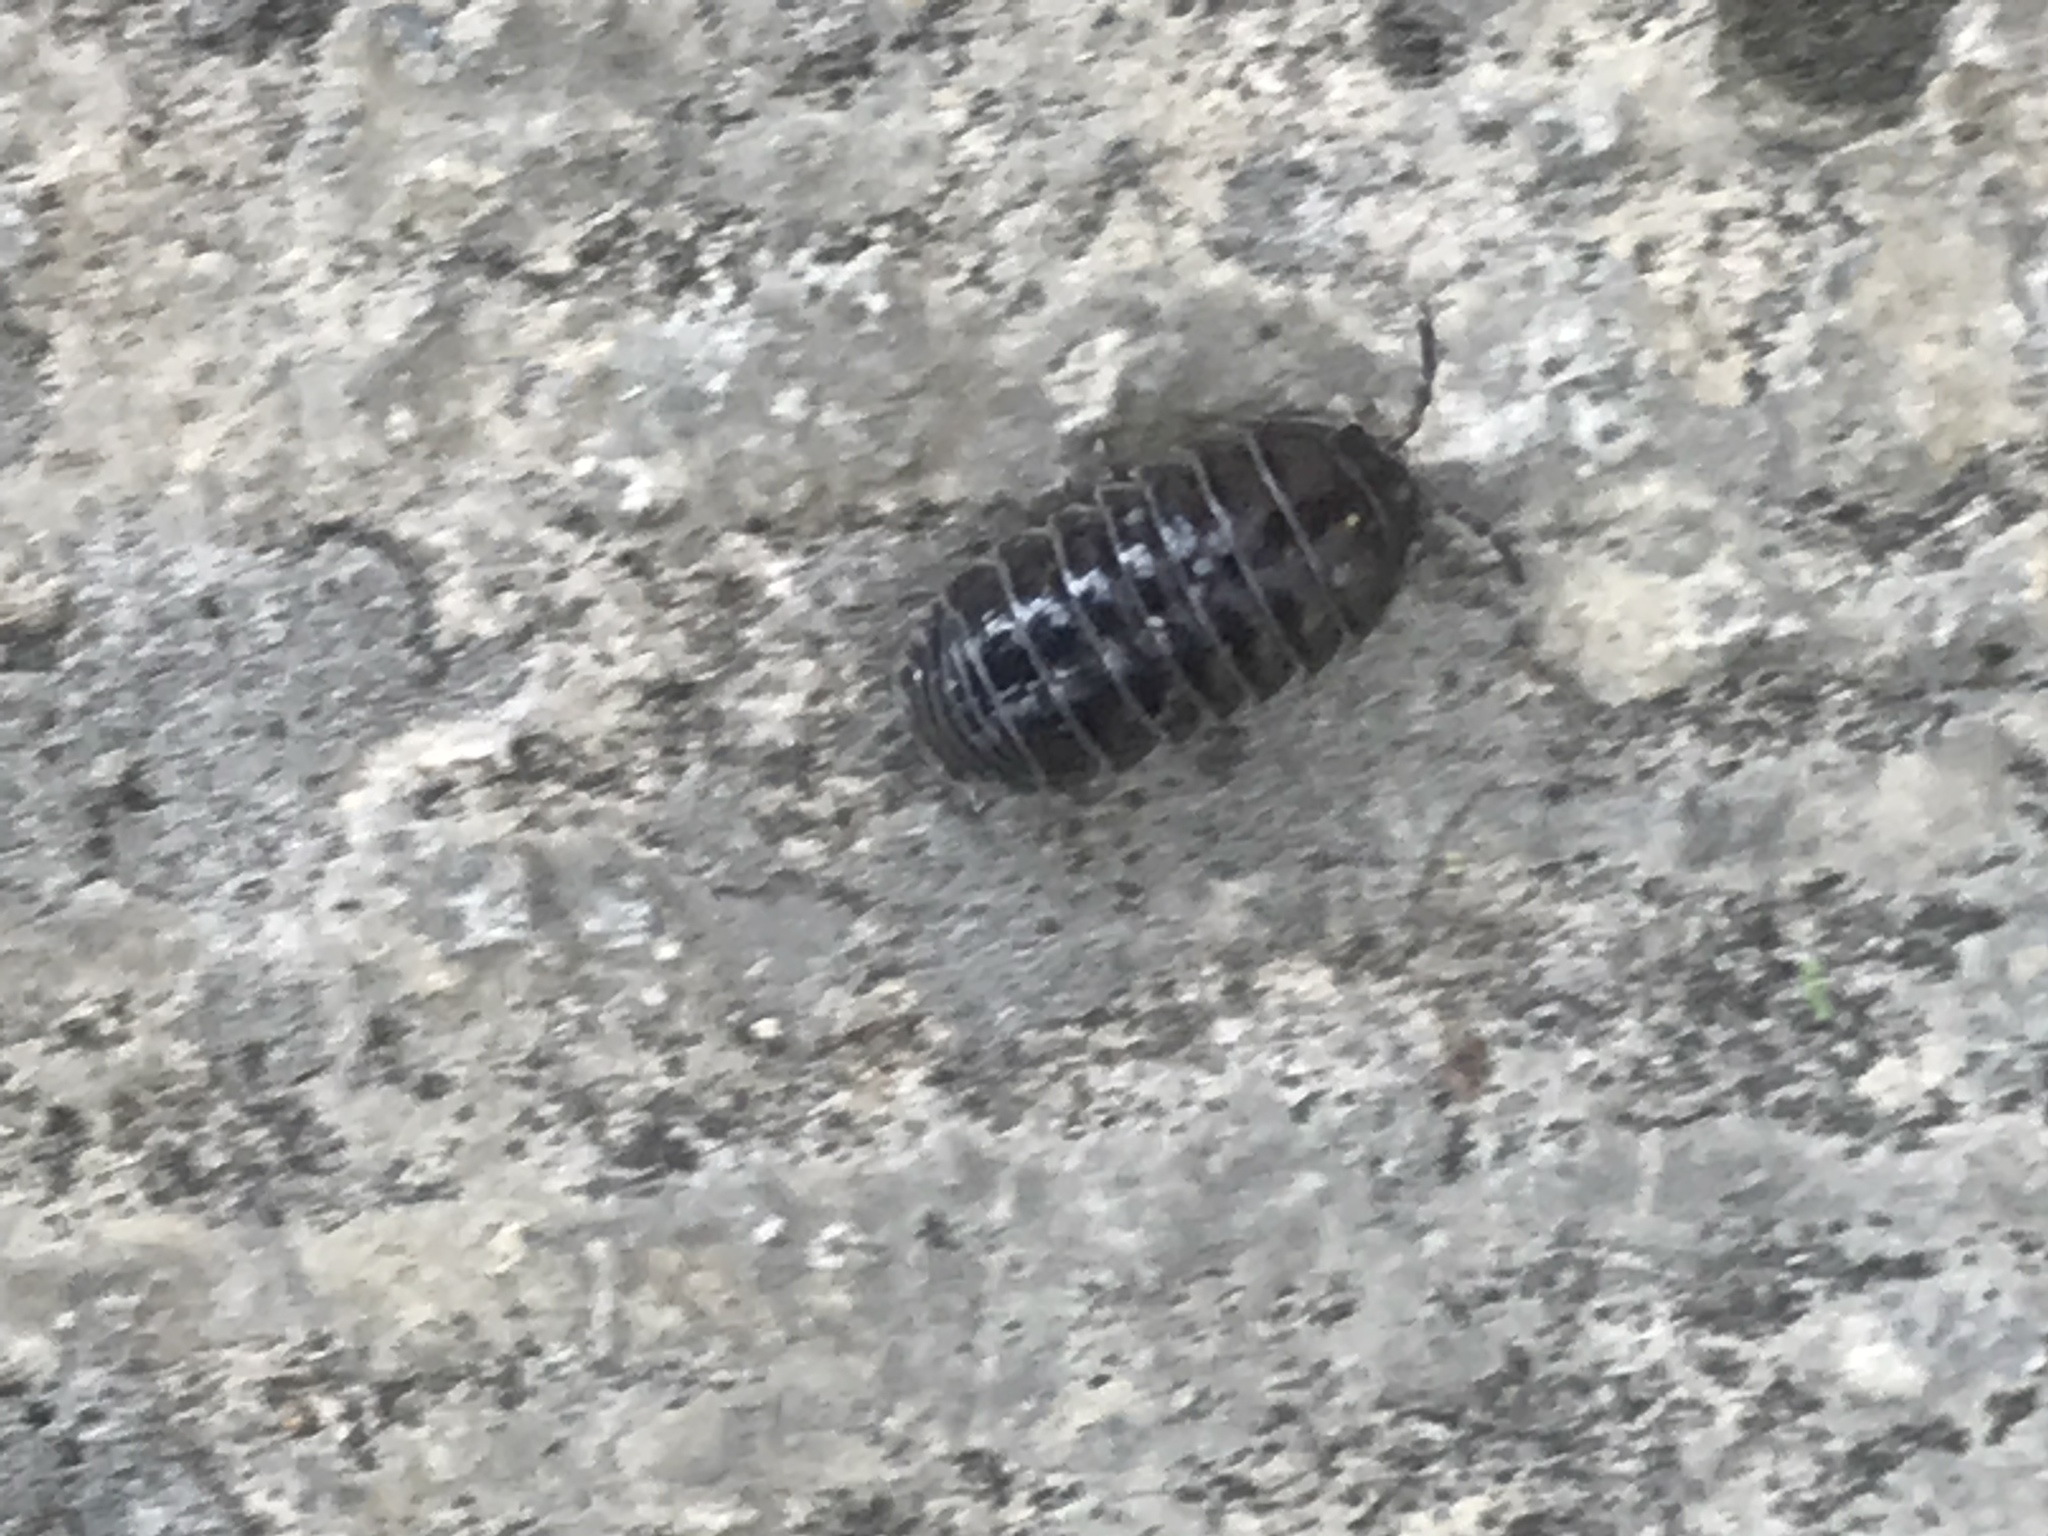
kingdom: Animalia
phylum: Arthropoda
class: Malacostraca
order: Isopoda
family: Armadillidiidae
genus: Armadillidium
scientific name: Armadillidium vulgare
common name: Common pill woodlouse
